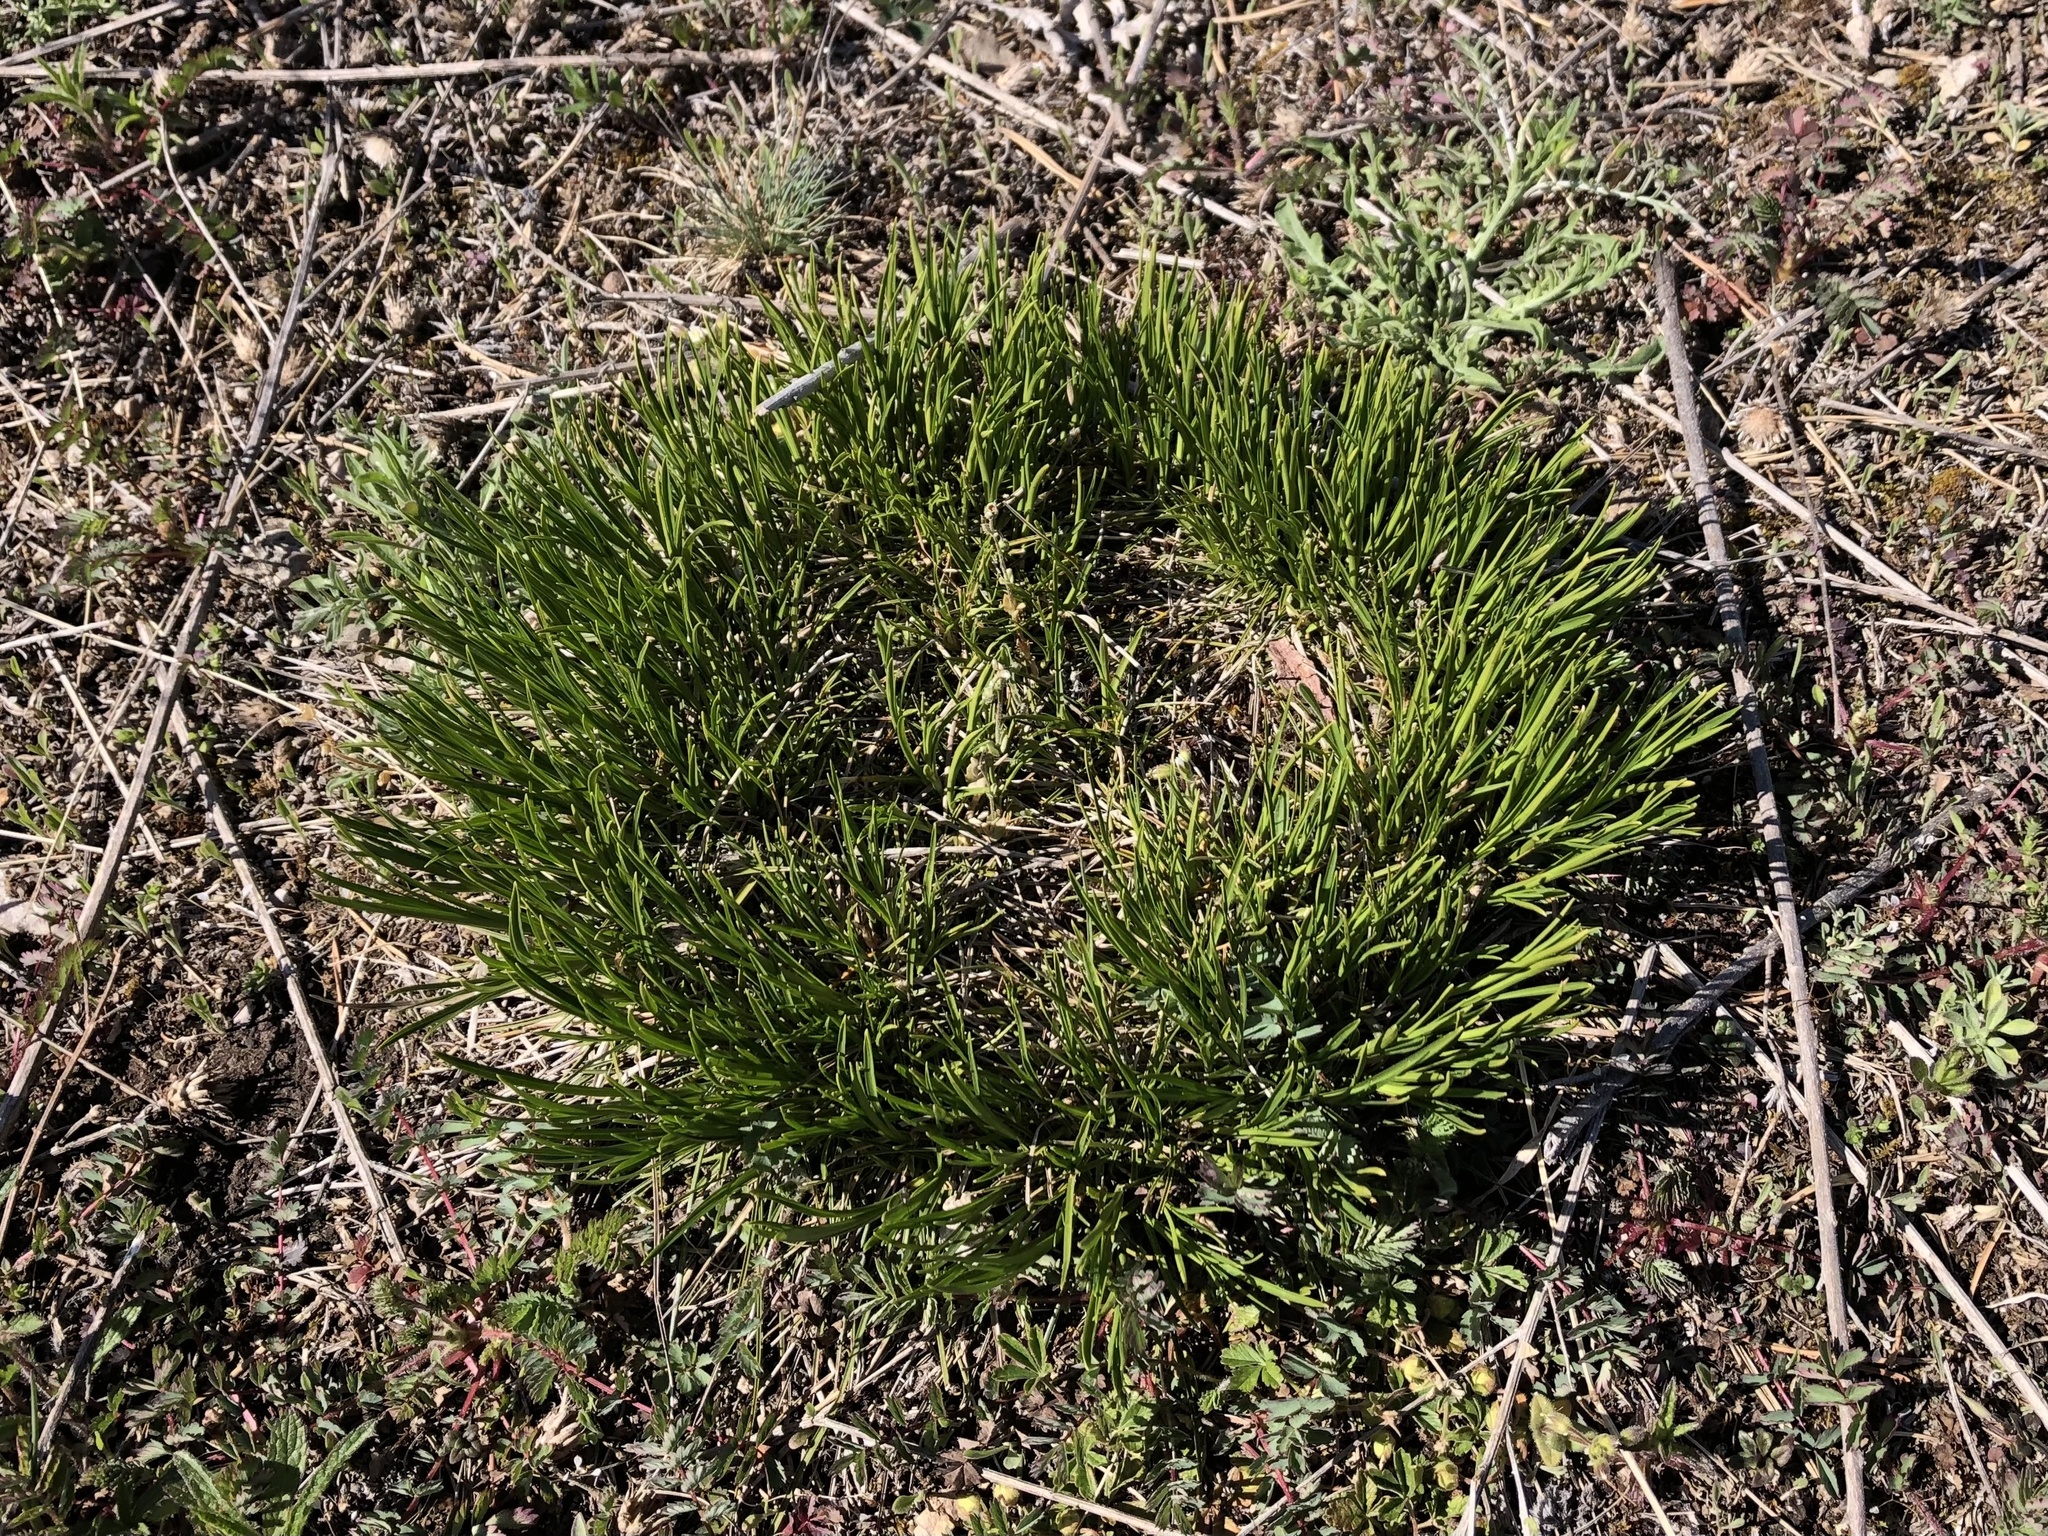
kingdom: Plantae
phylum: Tracheophyta
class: Liliopsida
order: Poales
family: Cyperaceae
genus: Carex
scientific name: Carex humilis
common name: Dwarf sedge
